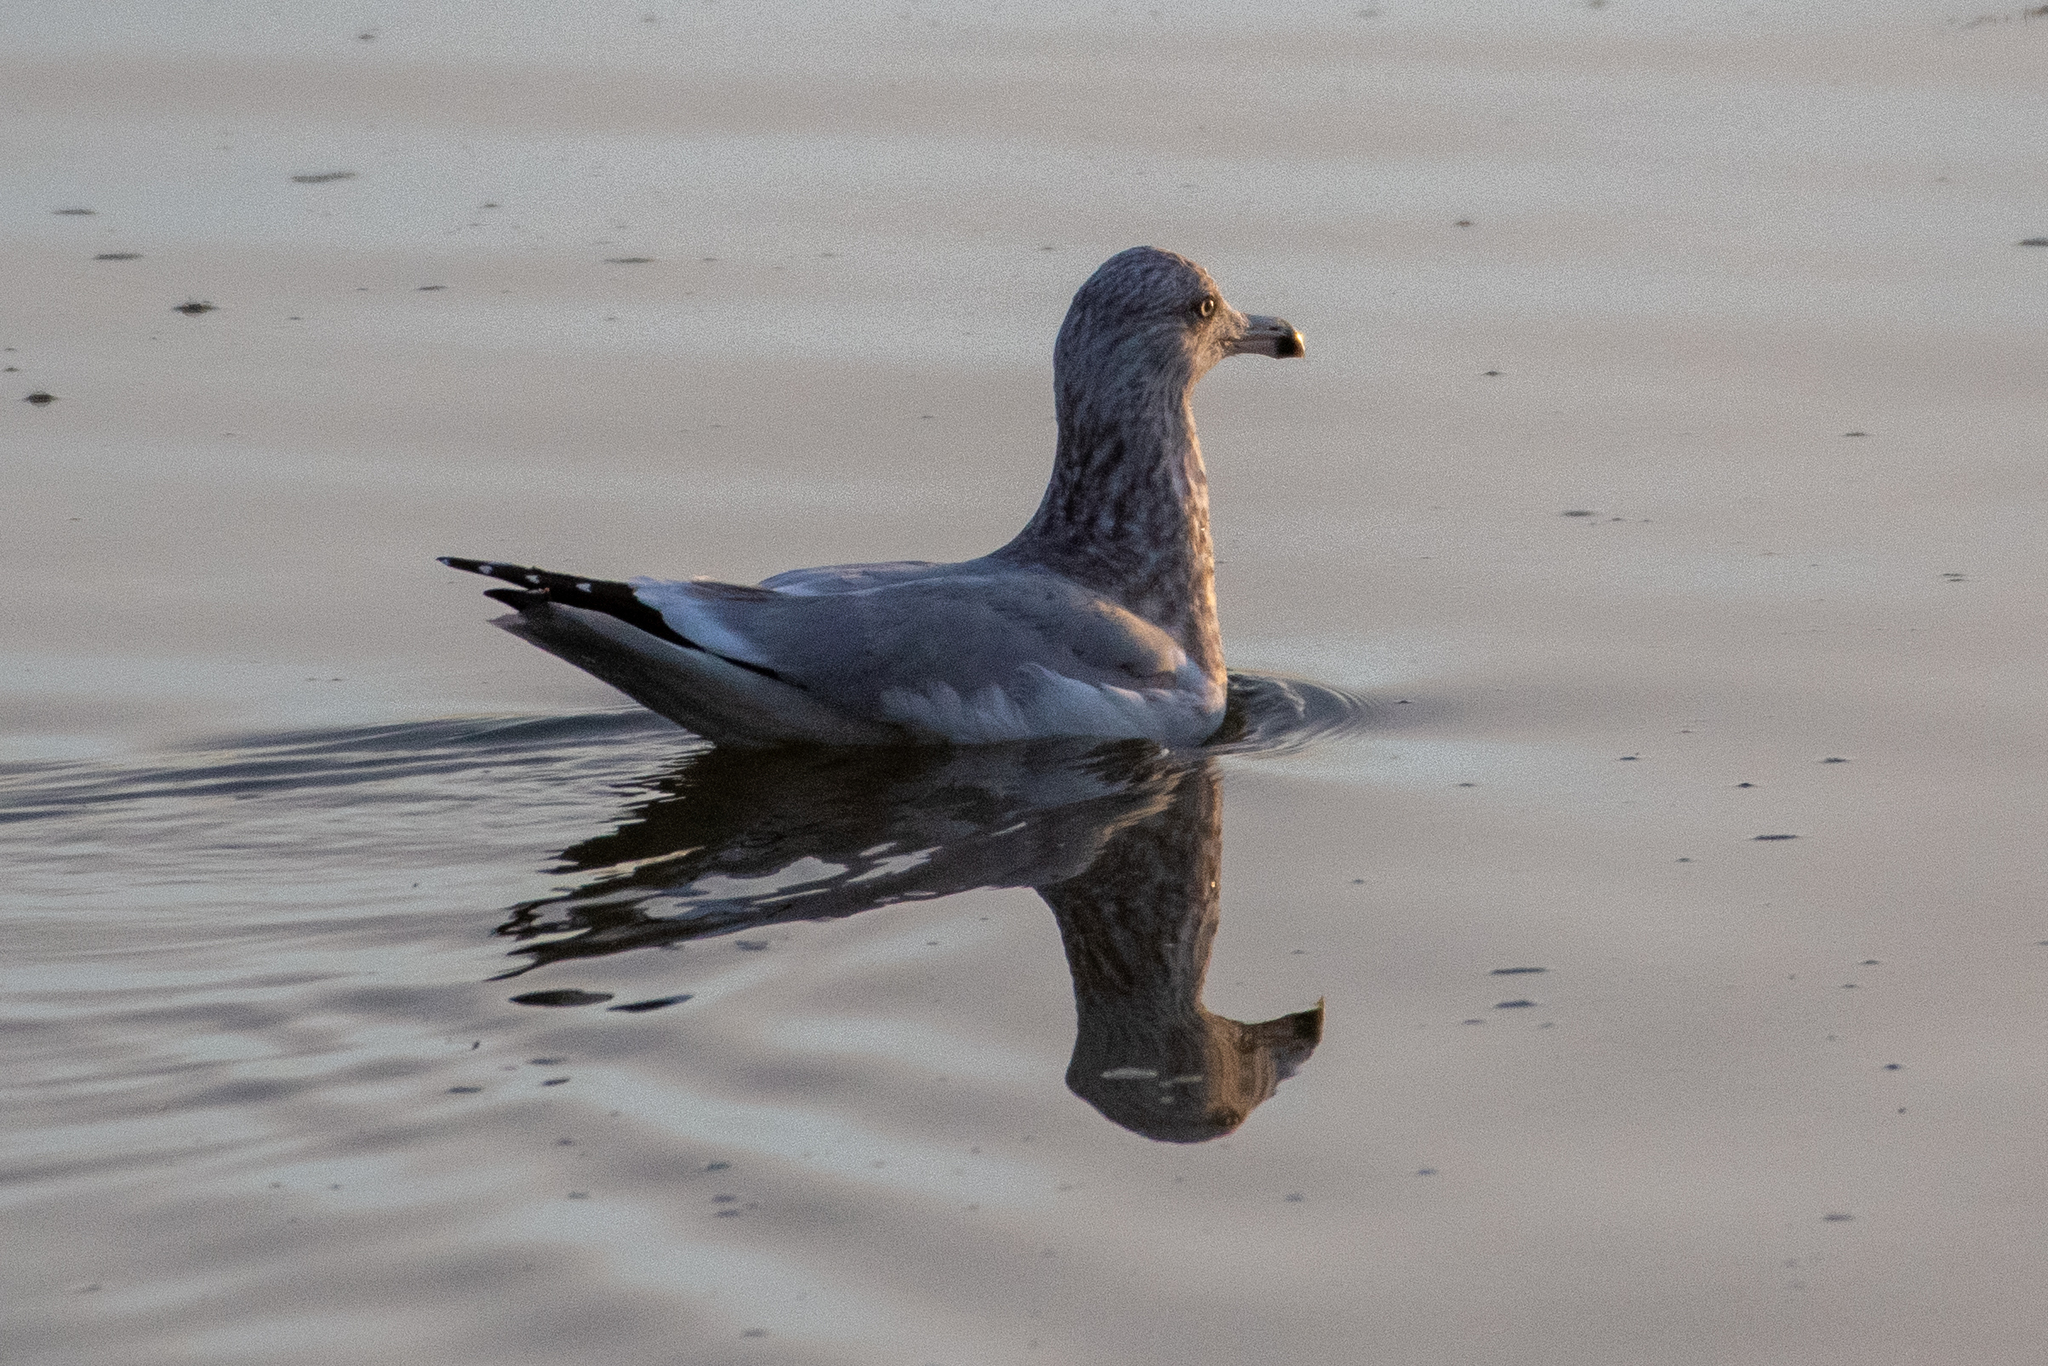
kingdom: Animalia
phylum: Chordata
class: Aves
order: Charadriiformes
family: Laridae
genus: Larus
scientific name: Larus argentatus
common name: Herring gull
